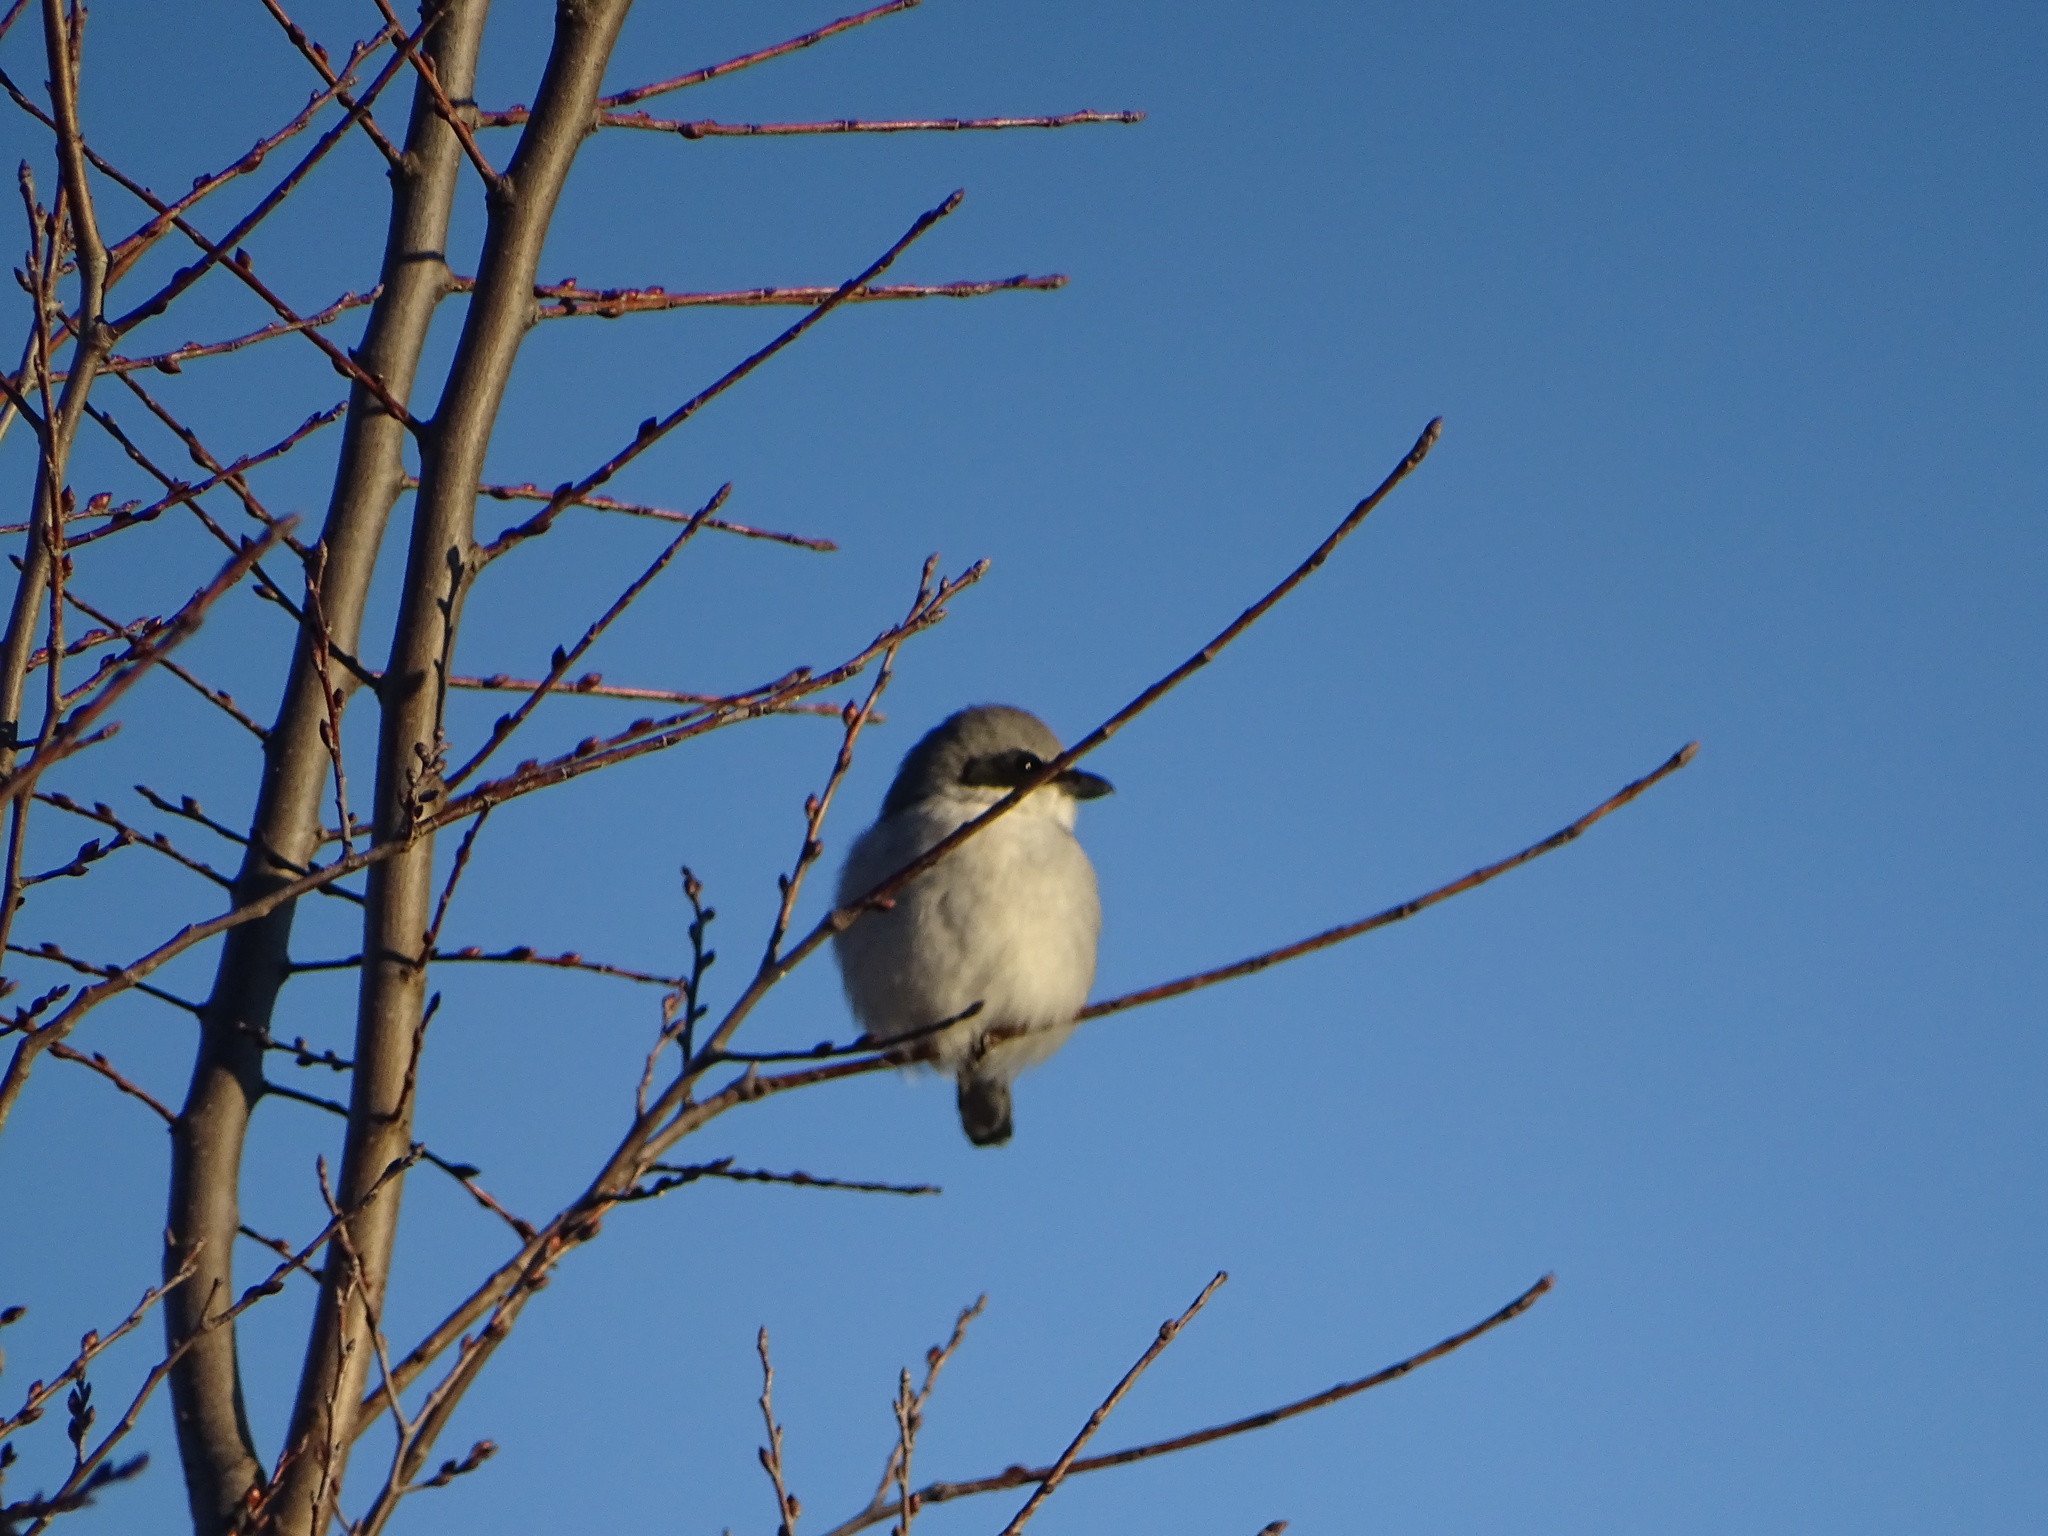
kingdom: Animalia
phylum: Chordata
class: Aves
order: Passeriformes
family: Laniidae
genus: Lanius
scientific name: Lanius ludovicianus
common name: Loggerhead shrike
